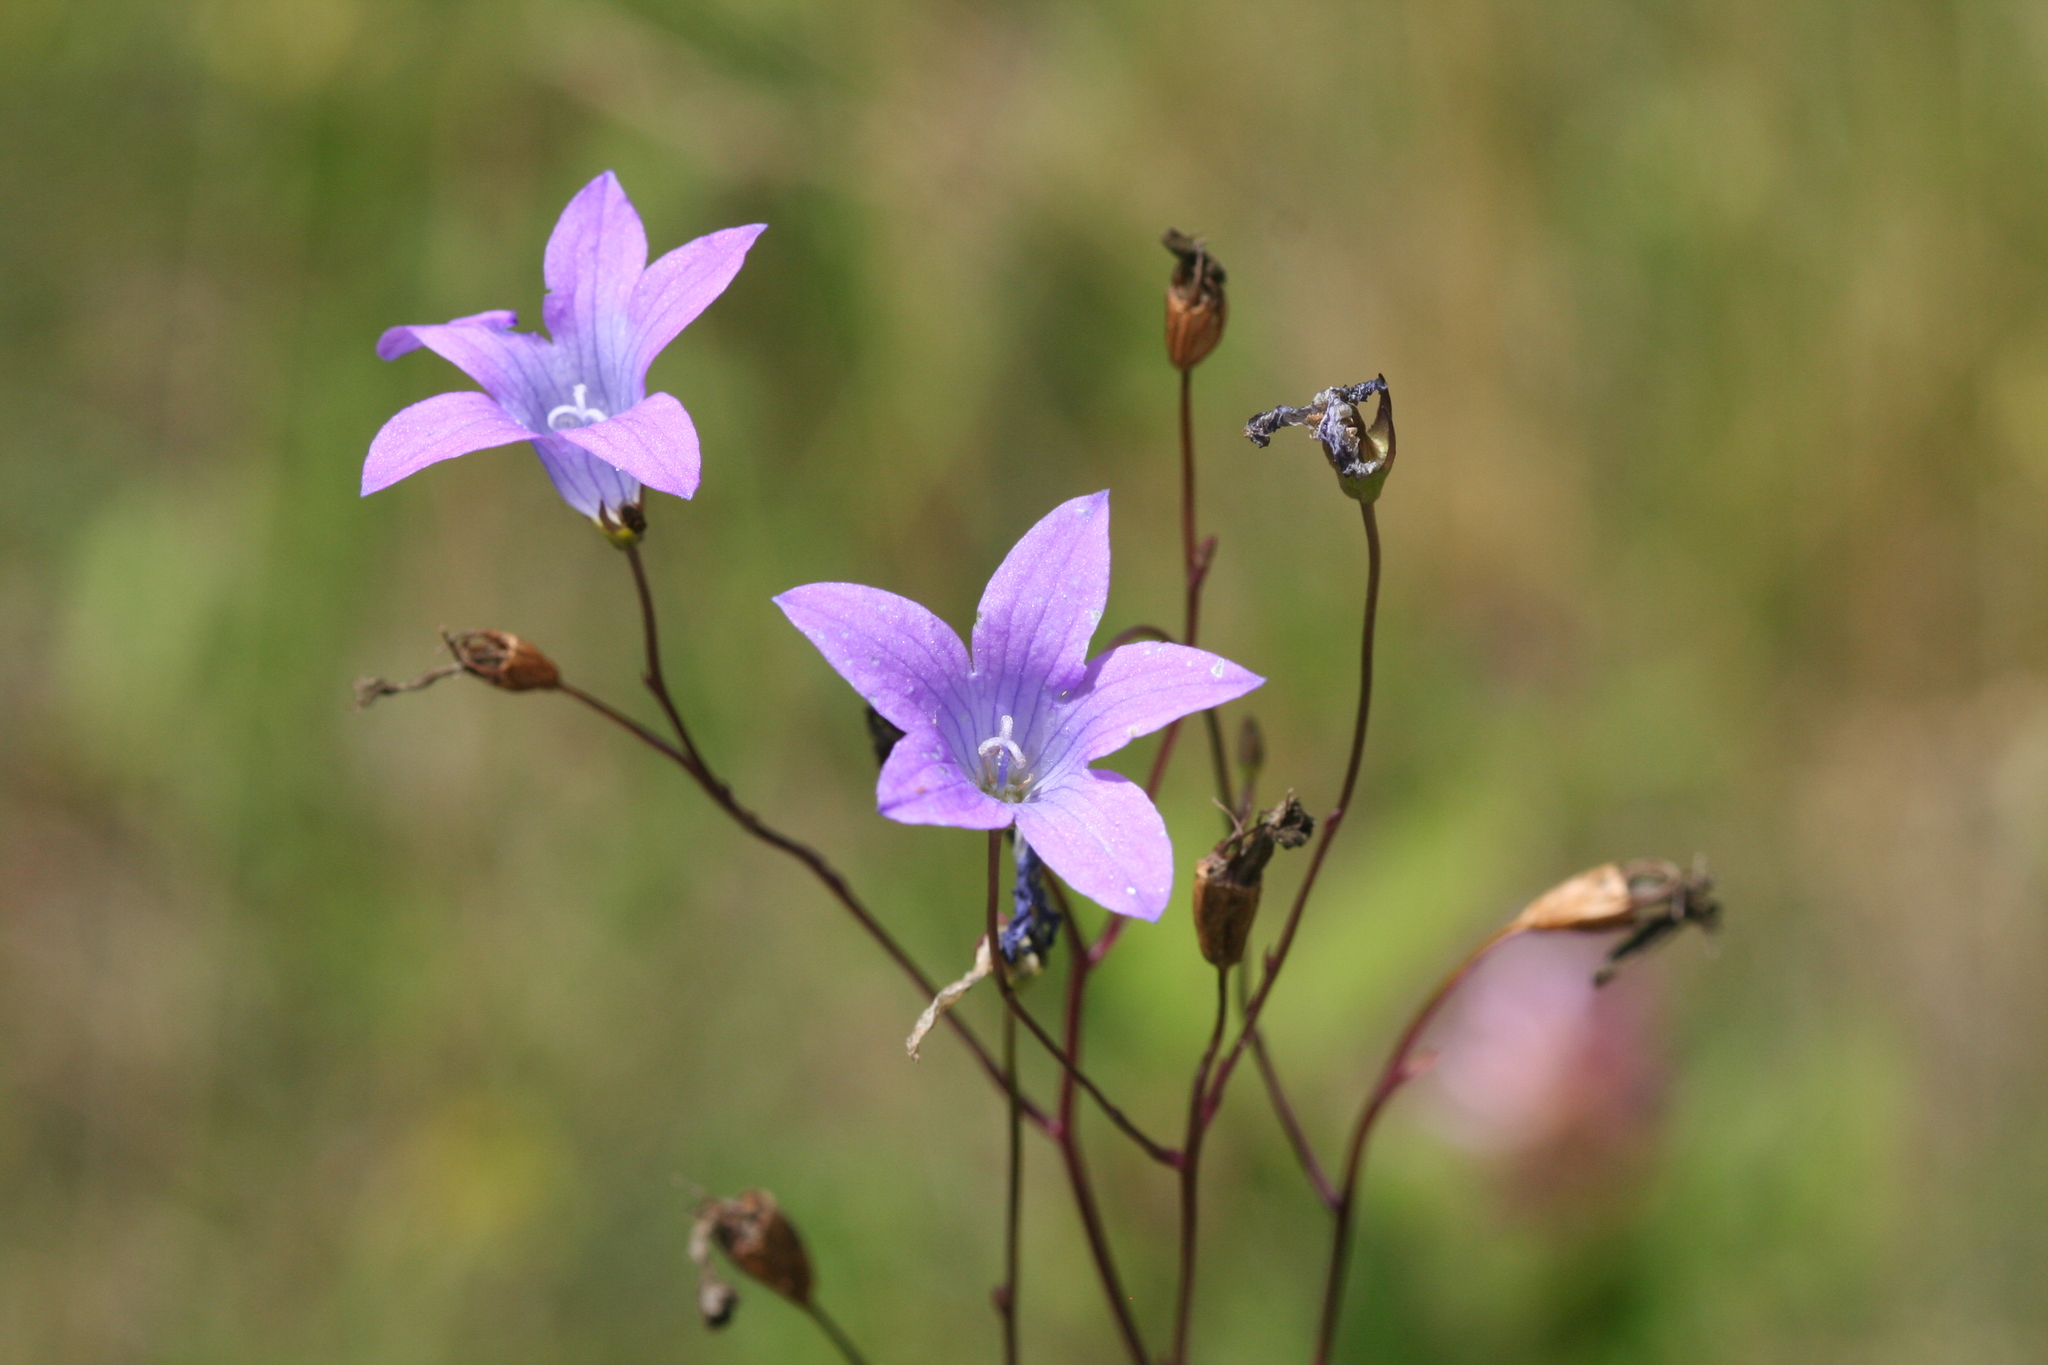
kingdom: Plantae
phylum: Tracheophyta
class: Magnoliopsida
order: Asterales
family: Campanulaceae
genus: Campanula
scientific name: Campanula patula
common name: Spreading bellflower
